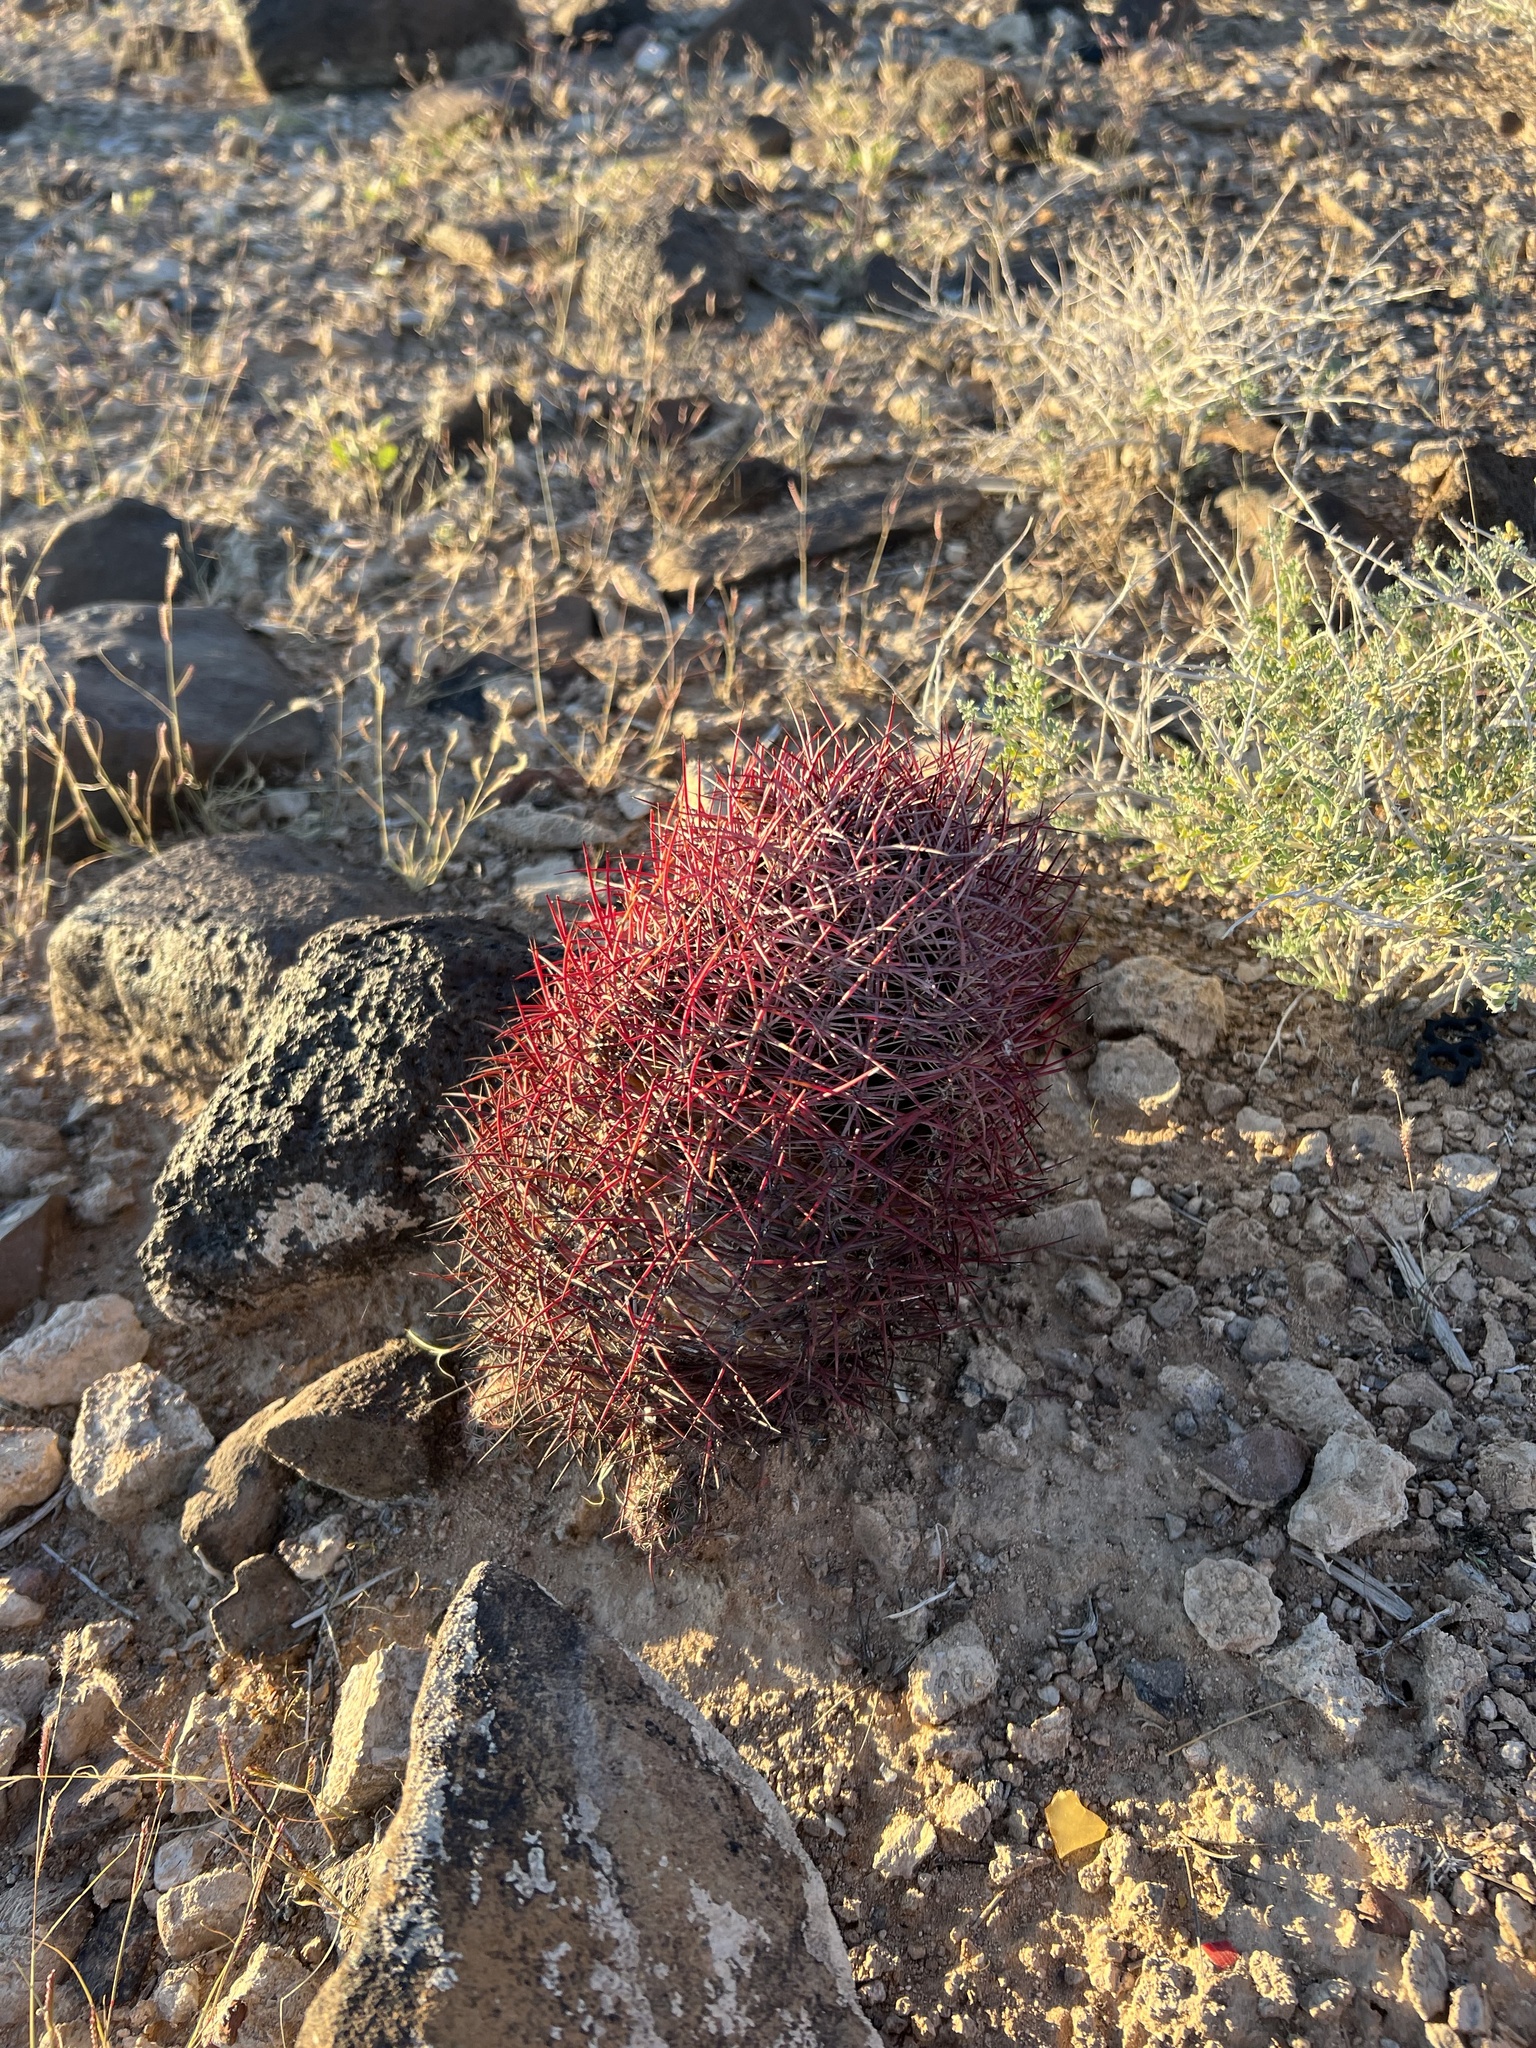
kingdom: Plantae
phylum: Tracheophyta
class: Magnoliopsida
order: Caryophyllales
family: Cactaceae
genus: Sclerocactus
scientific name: Sclerocactus johnsonii
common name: Eight-spine fishhook cactus
